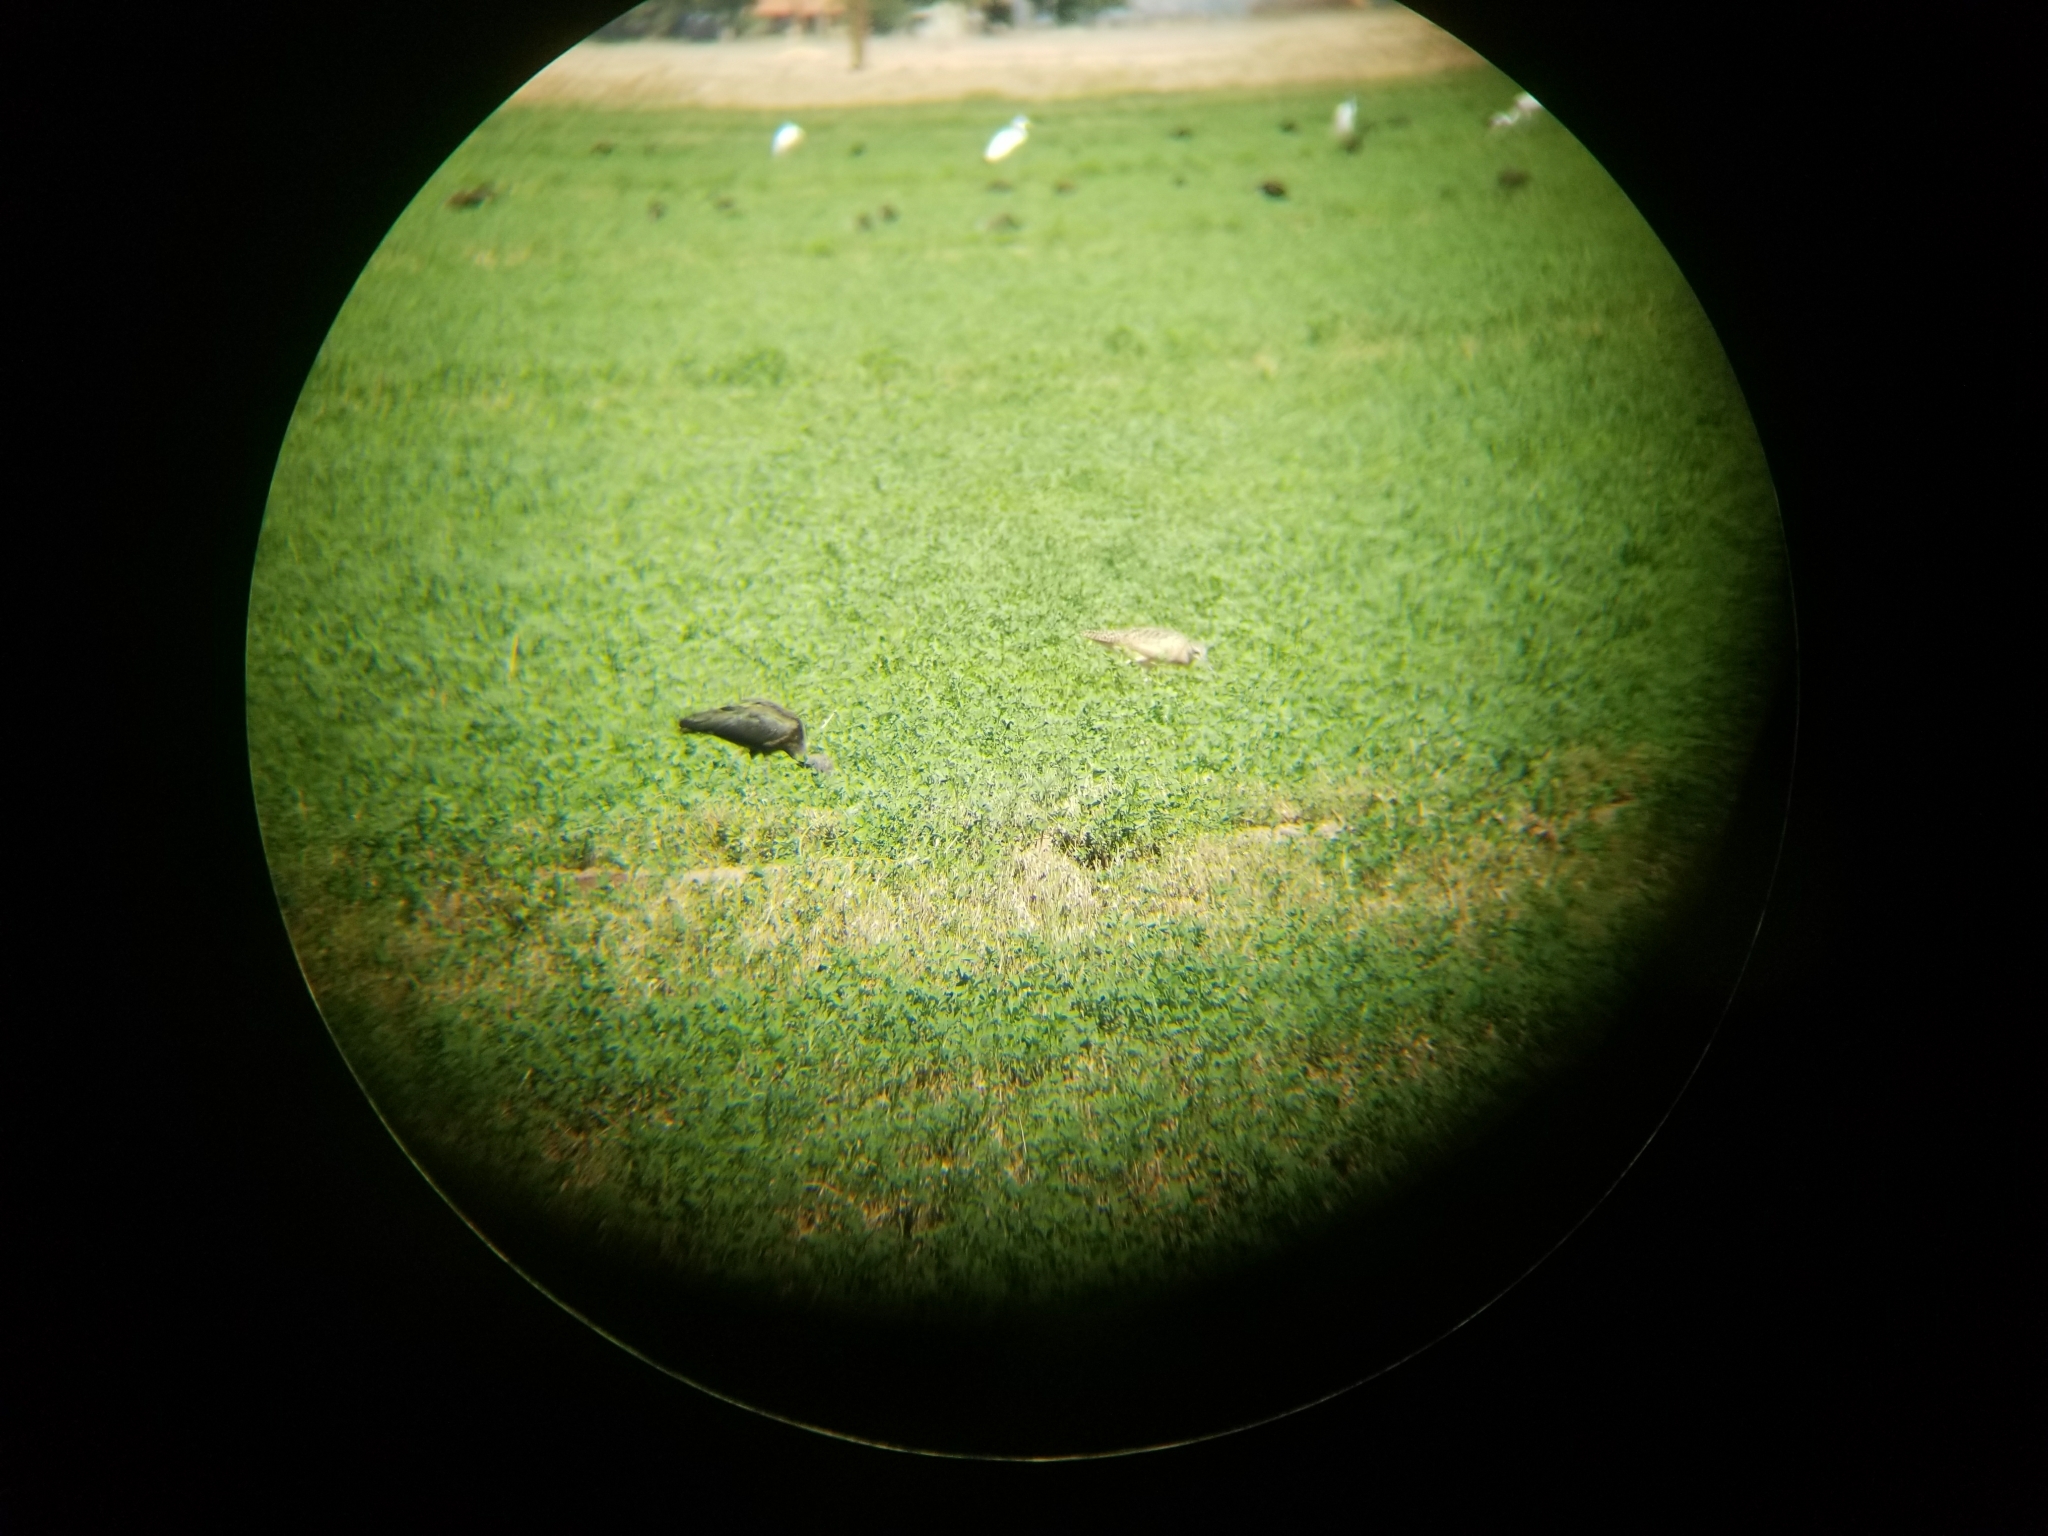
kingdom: Animalia
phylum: Chordata
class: Aves
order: Charadriiformes
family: Scolopacidae
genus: Numenius
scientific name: Numenius americanus
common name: Long-billed curlew
